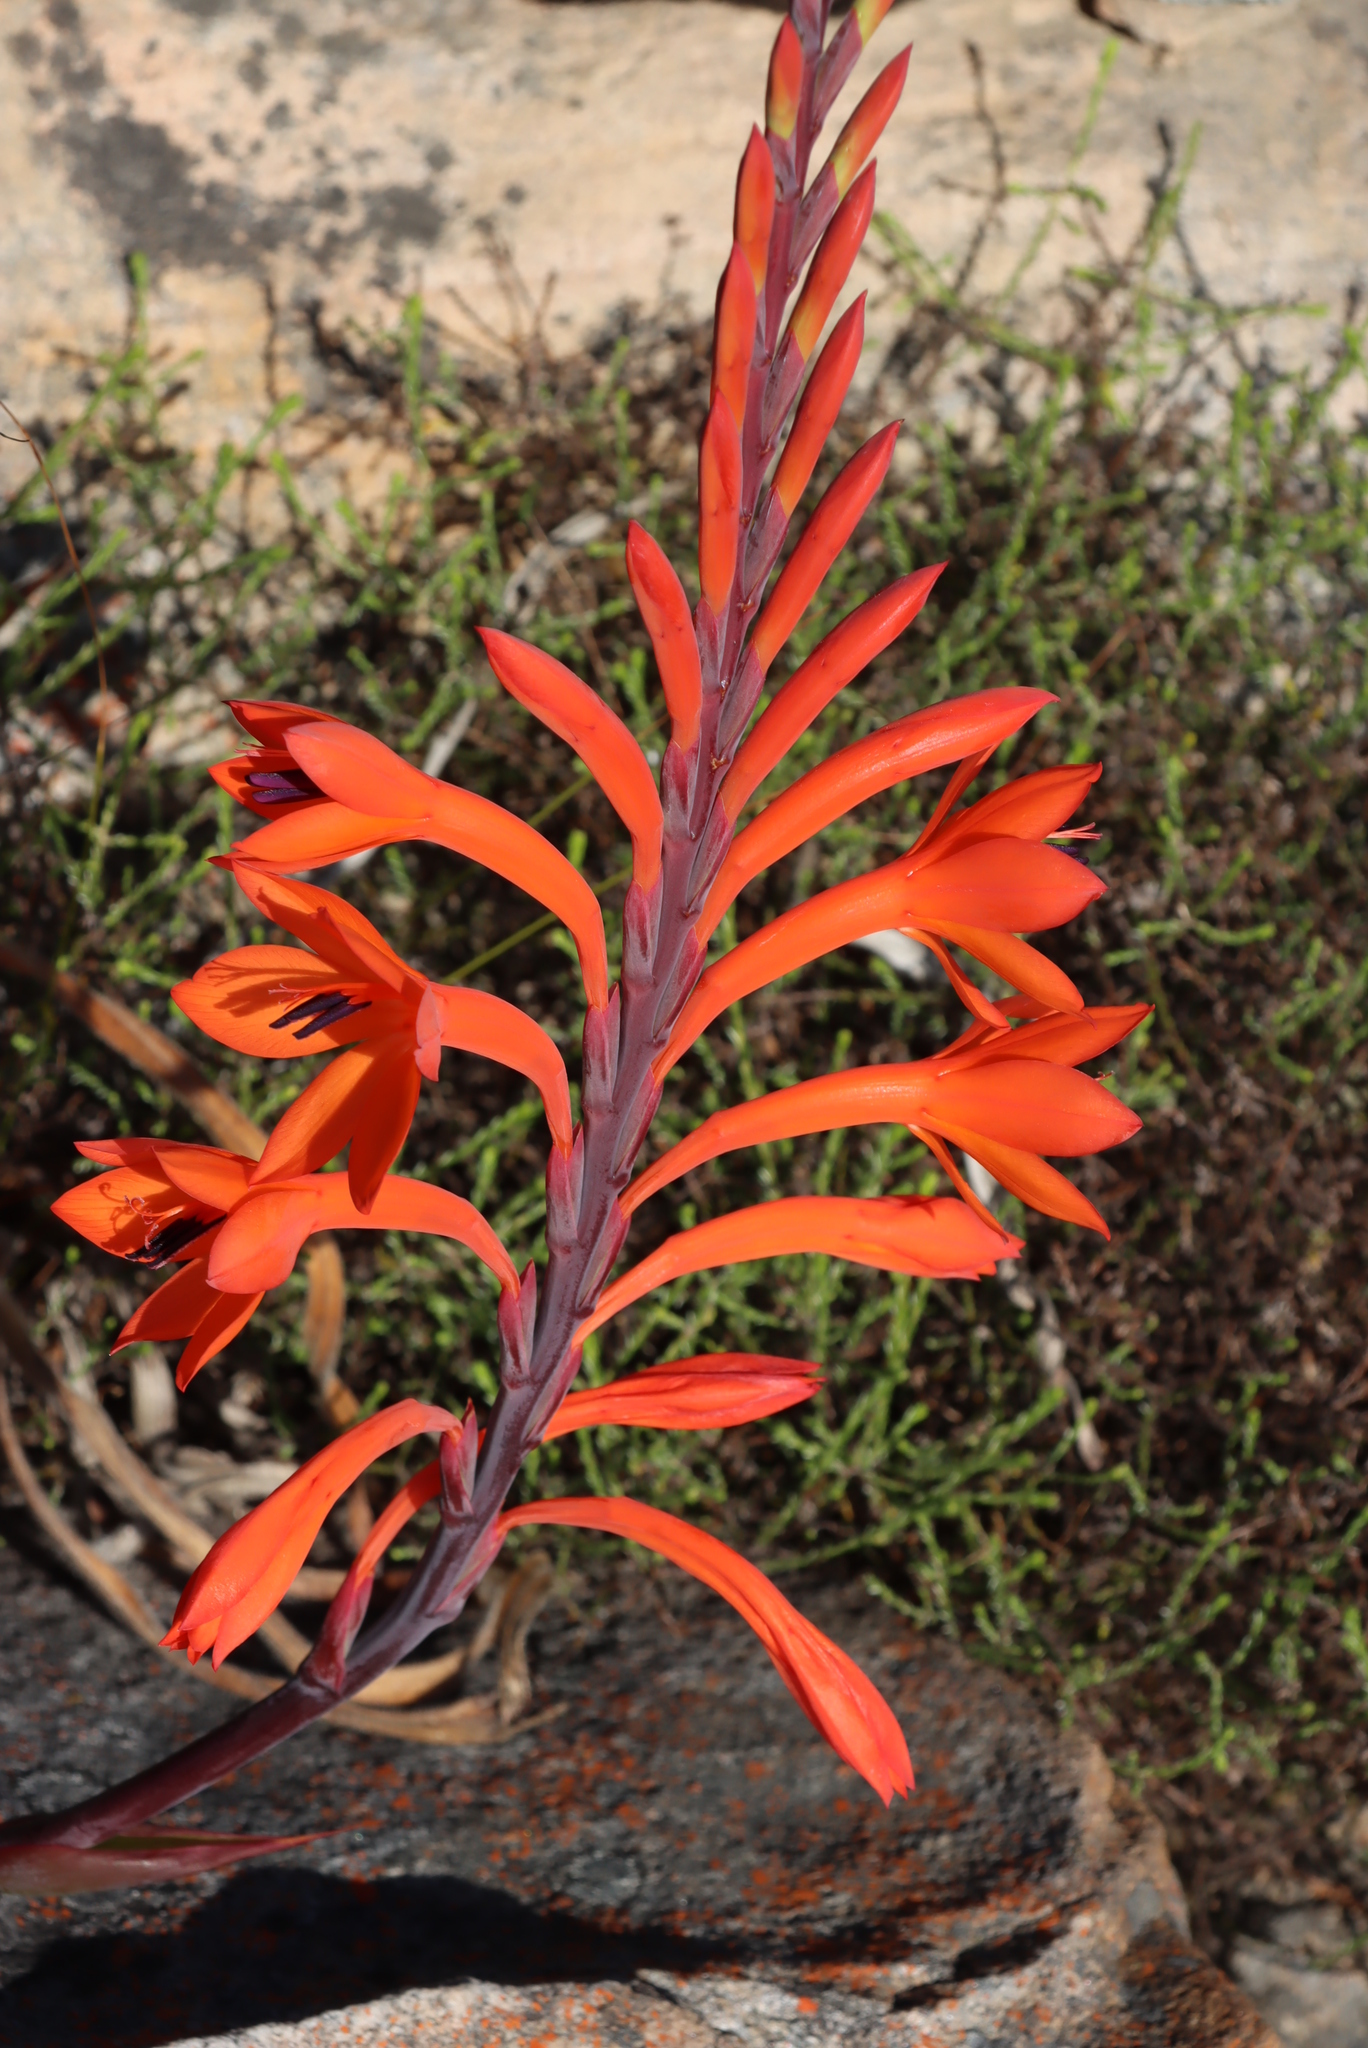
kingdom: Plantae
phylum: Tracheophyta
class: Liliopsida
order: Asparagales
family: Iridaceae
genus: Watsonia
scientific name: Watsonia tabularis
